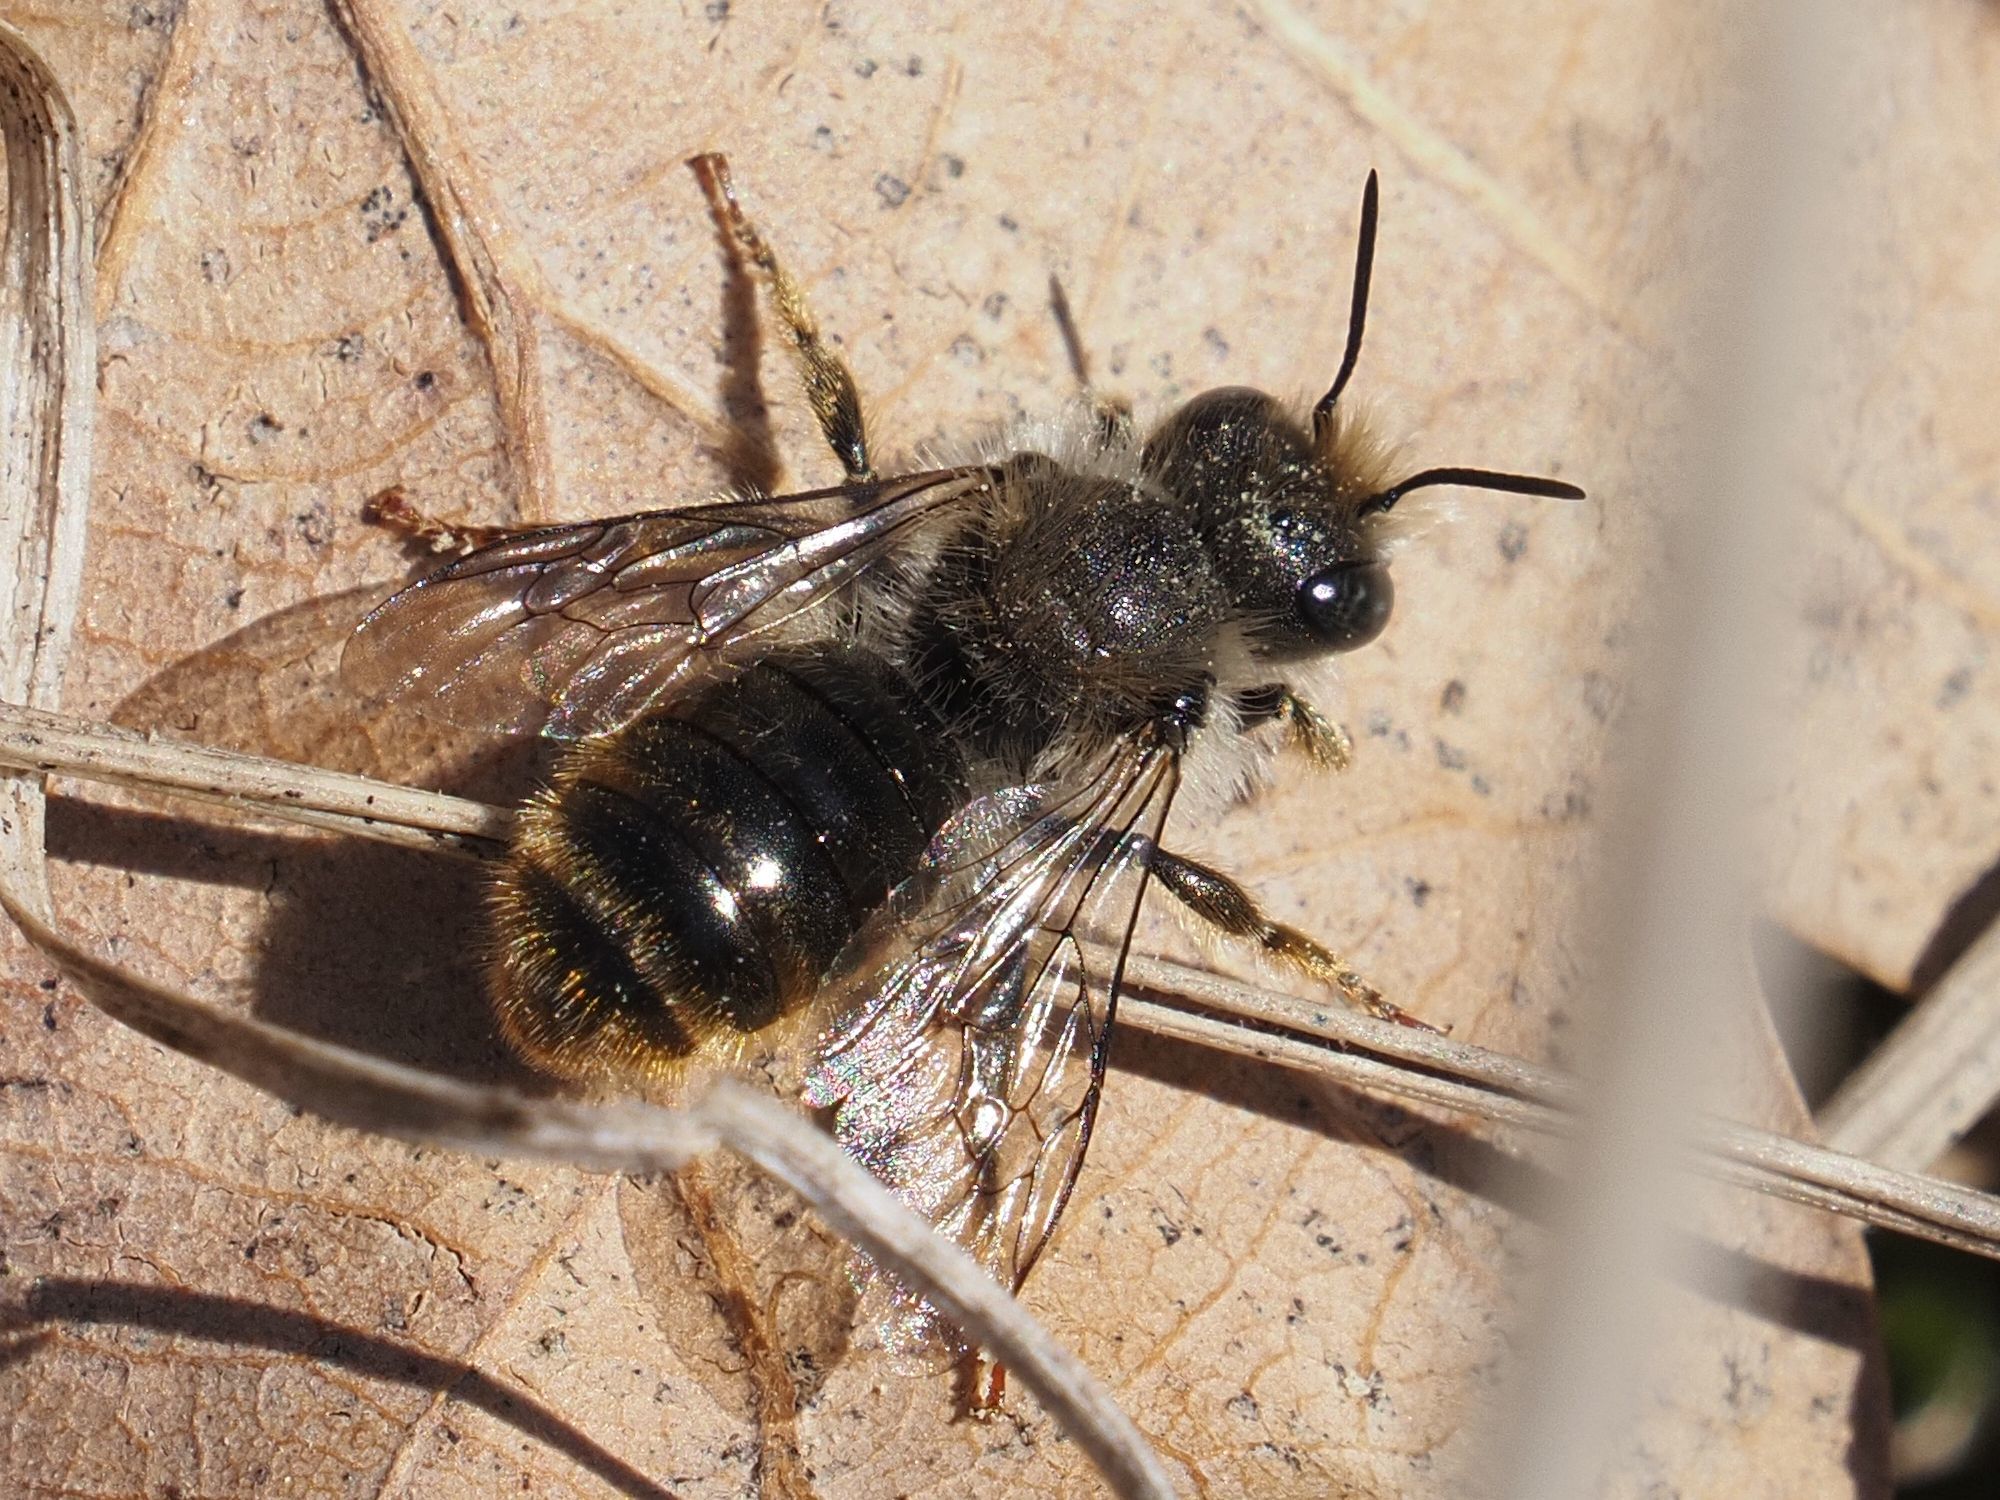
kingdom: Animalia
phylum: Arthropoda
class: Insecta
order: Hymenoptera
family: Megachilidae
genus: Osmia
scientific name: Osmia bicolor
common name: Red-tailed mason bee
